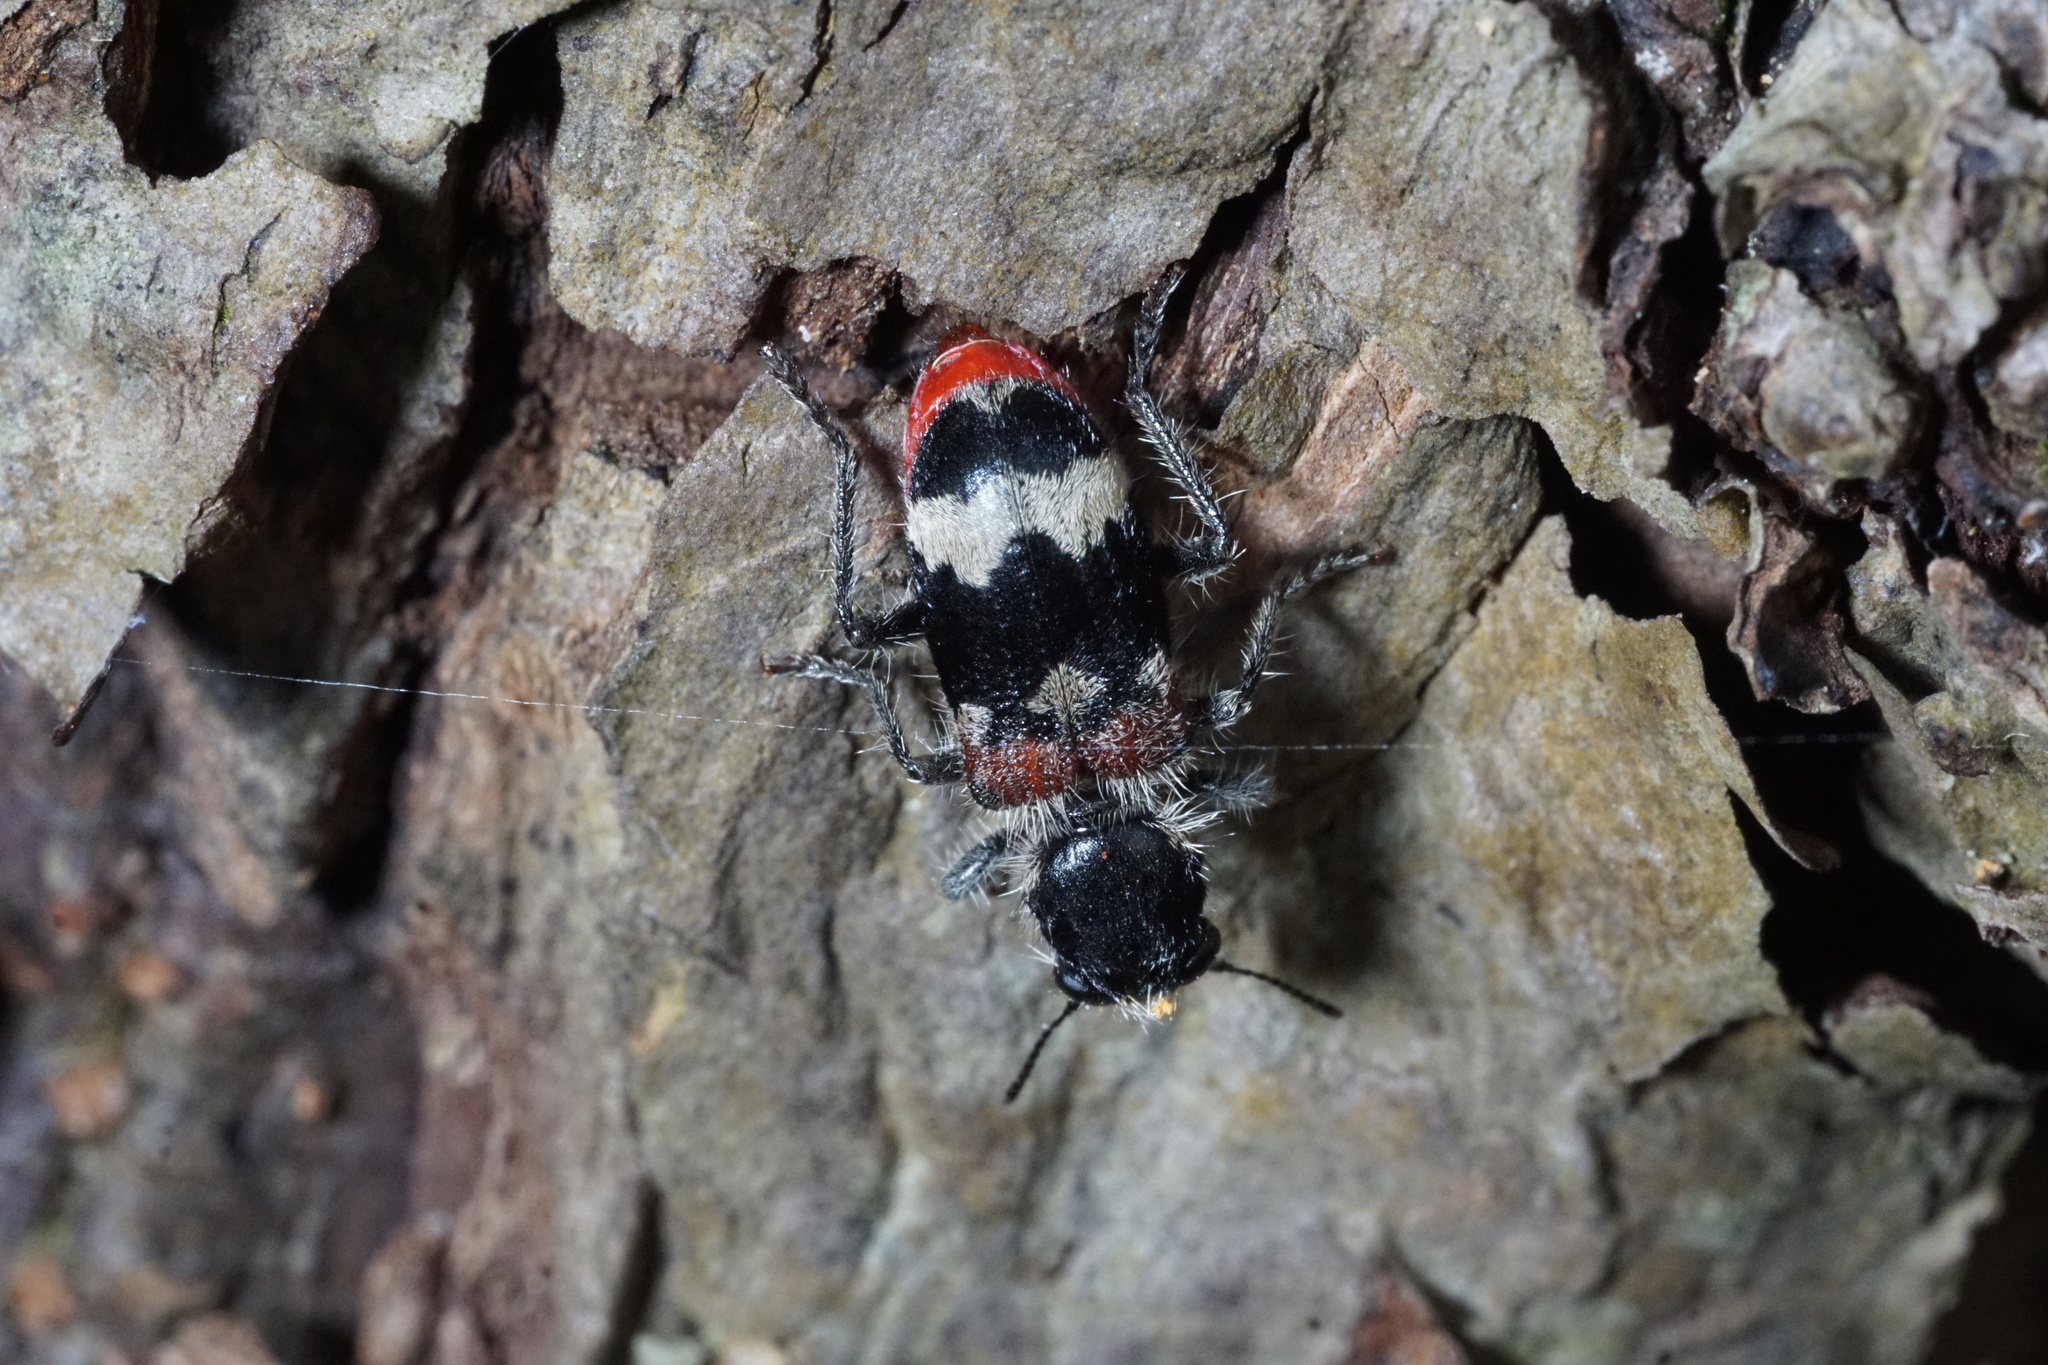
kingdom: Animalia
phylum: Arthropoda
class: Insecta
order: Coleoptera
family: Cleridae
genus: Clerus
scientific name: Clerus mutillarius
